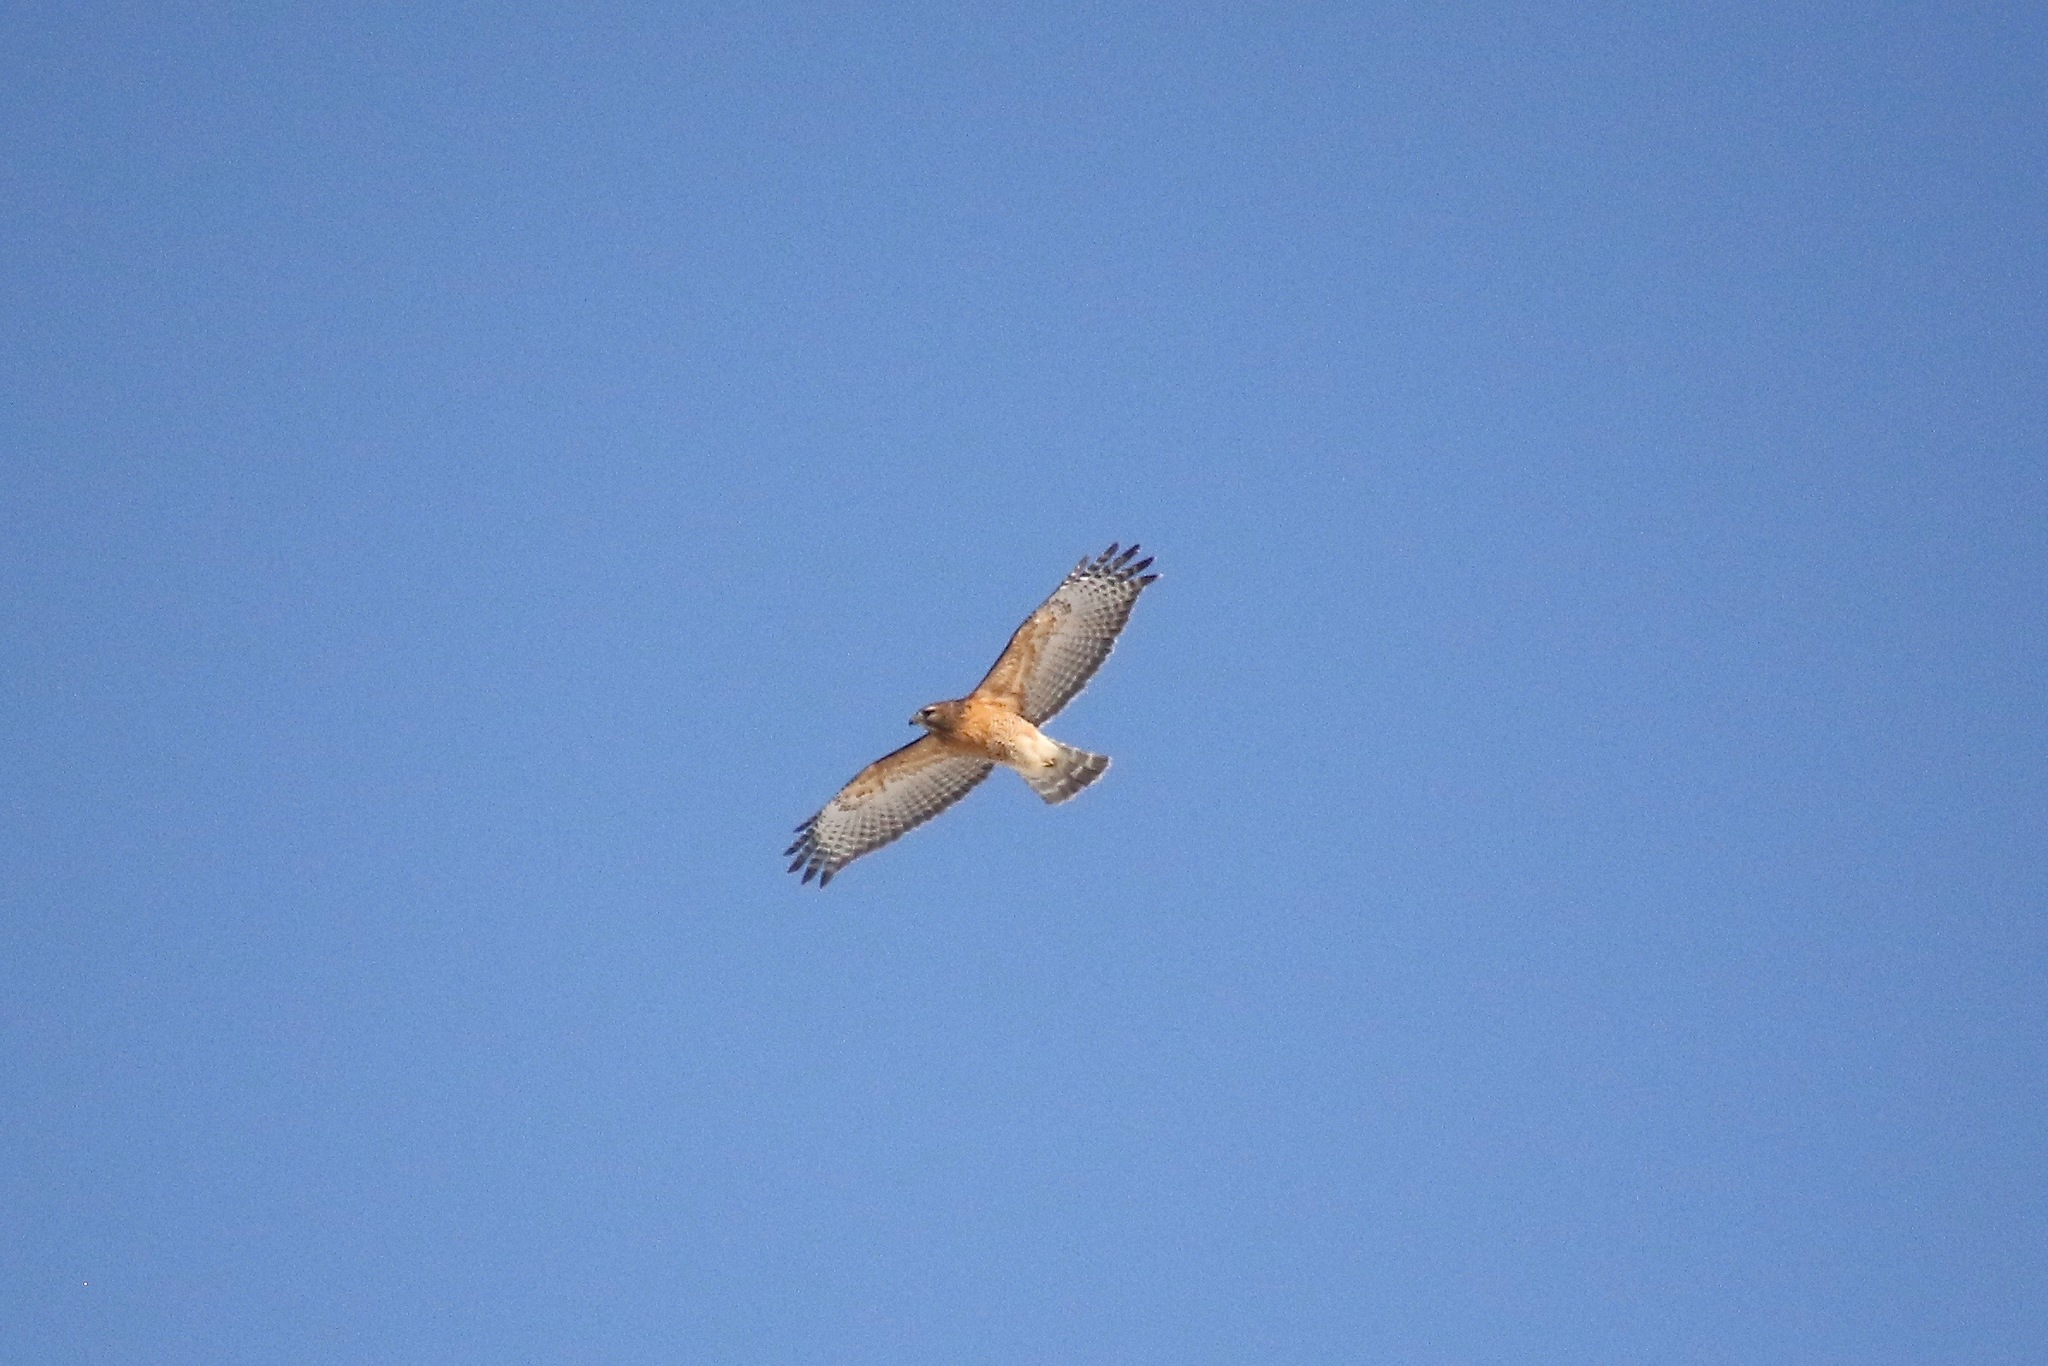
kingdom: Animalia
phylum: Chordata
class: Aves
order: Accipitriformes
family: Accipitridae
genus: Buteo
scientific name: Buteo lineatus
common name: Red-shouldered hawk
